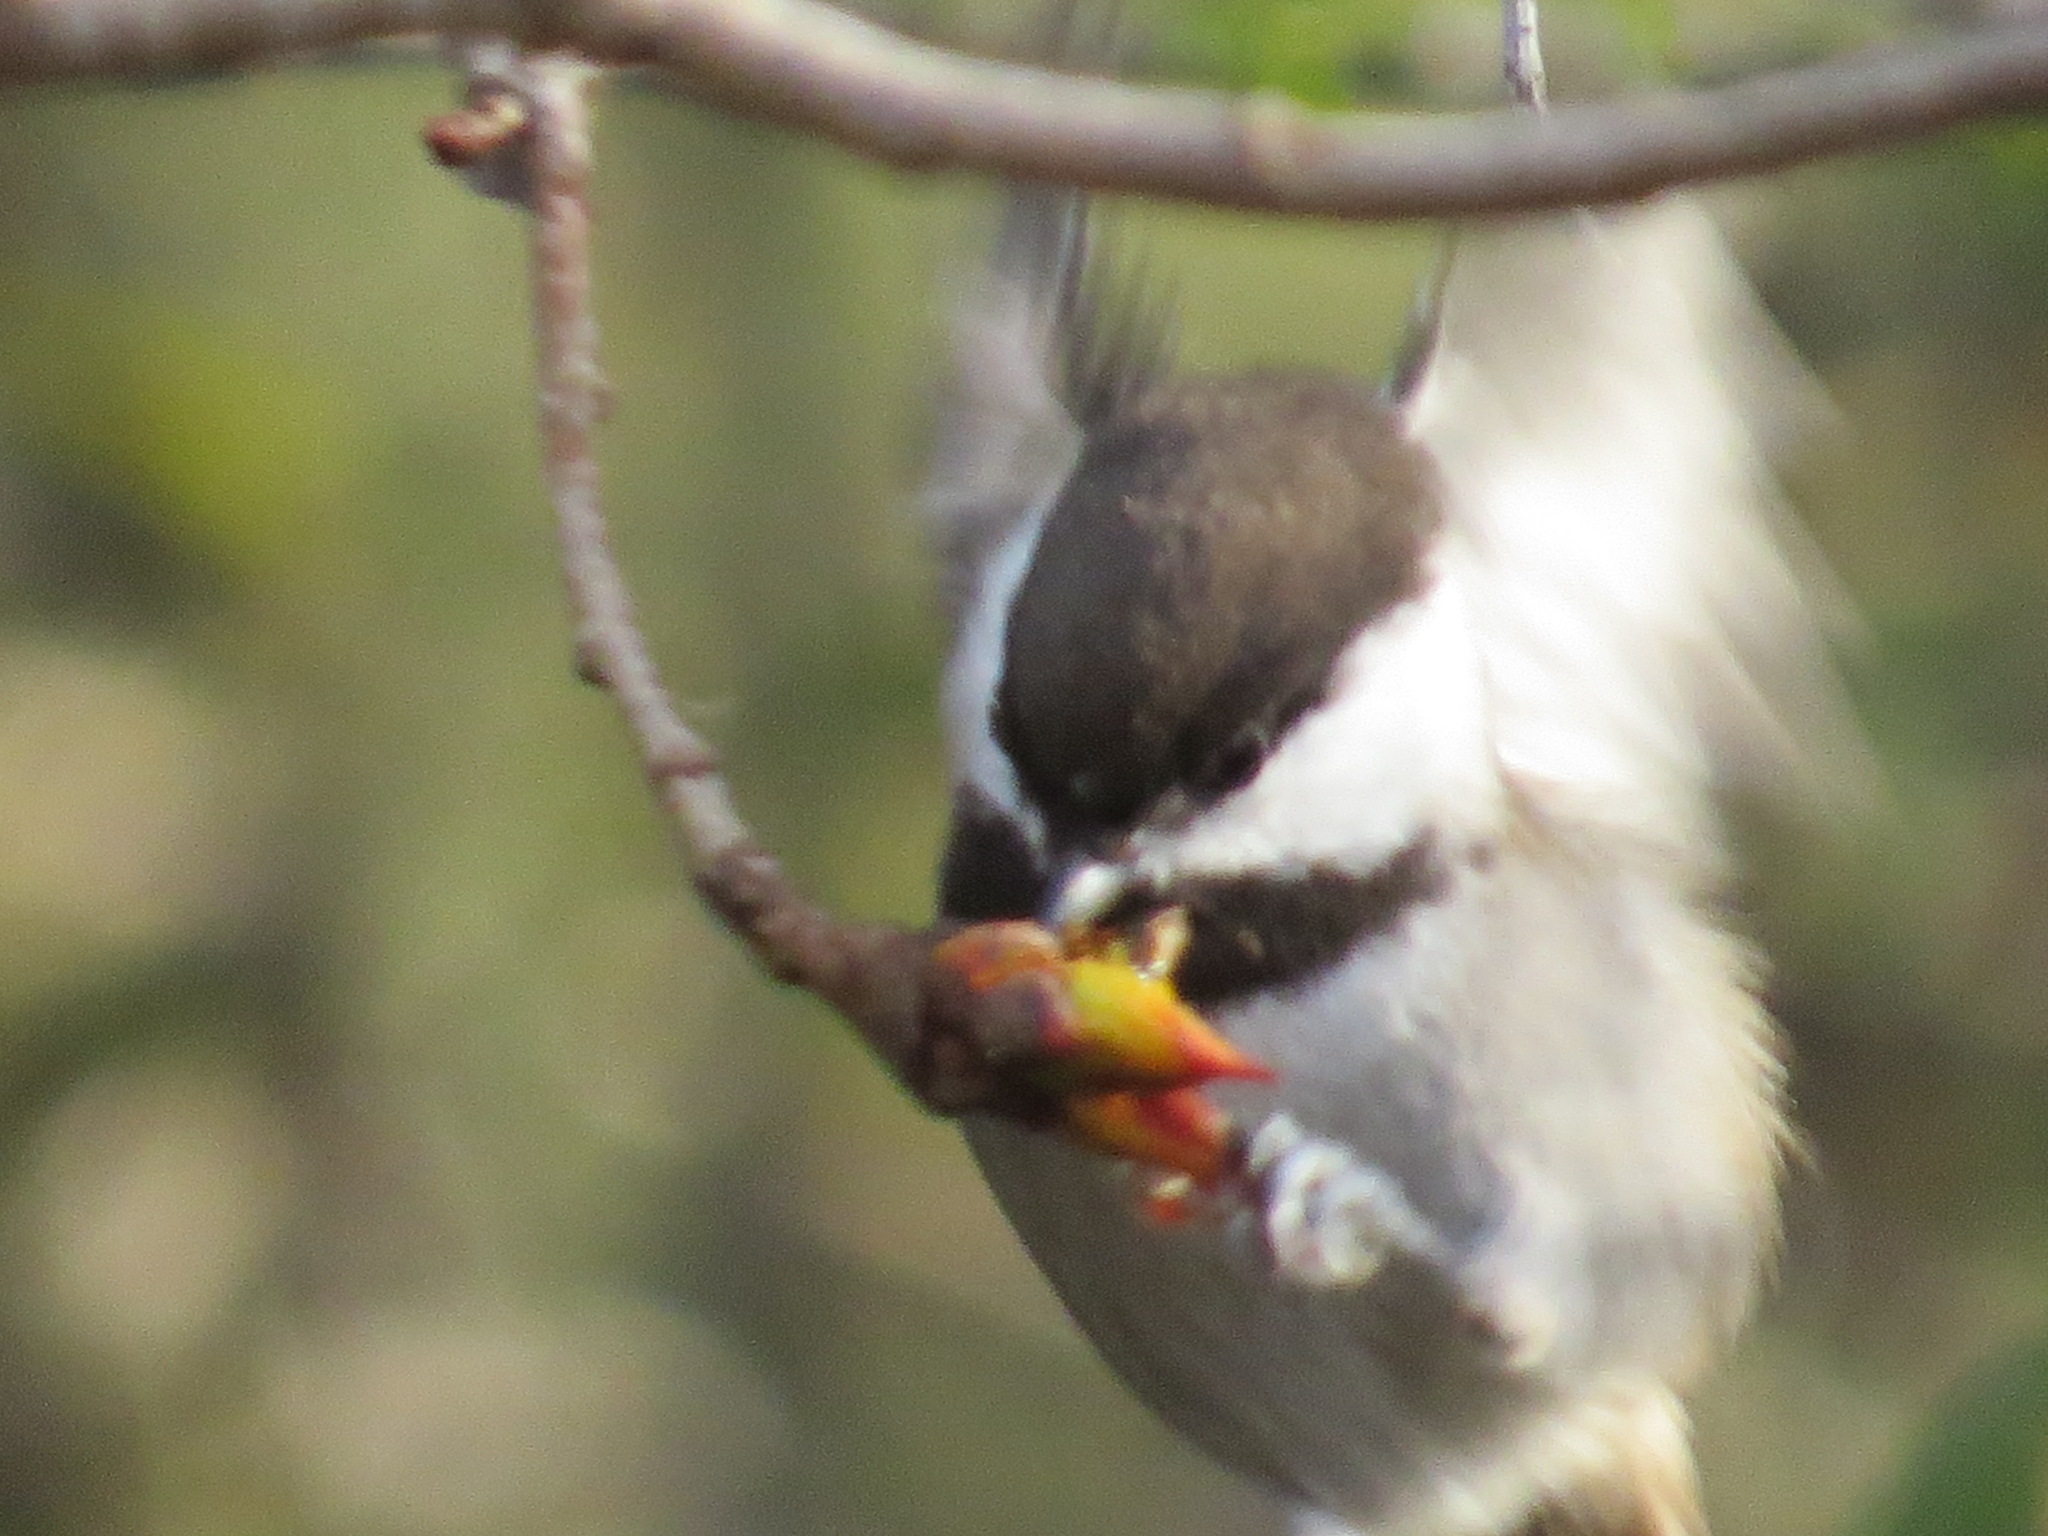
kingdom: Animalia
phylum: Chordata
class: Aves
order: Passeriformes
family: Paridae
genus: Poecile
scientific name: Poecile rufescens
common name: Chestnut-backed chickadee
